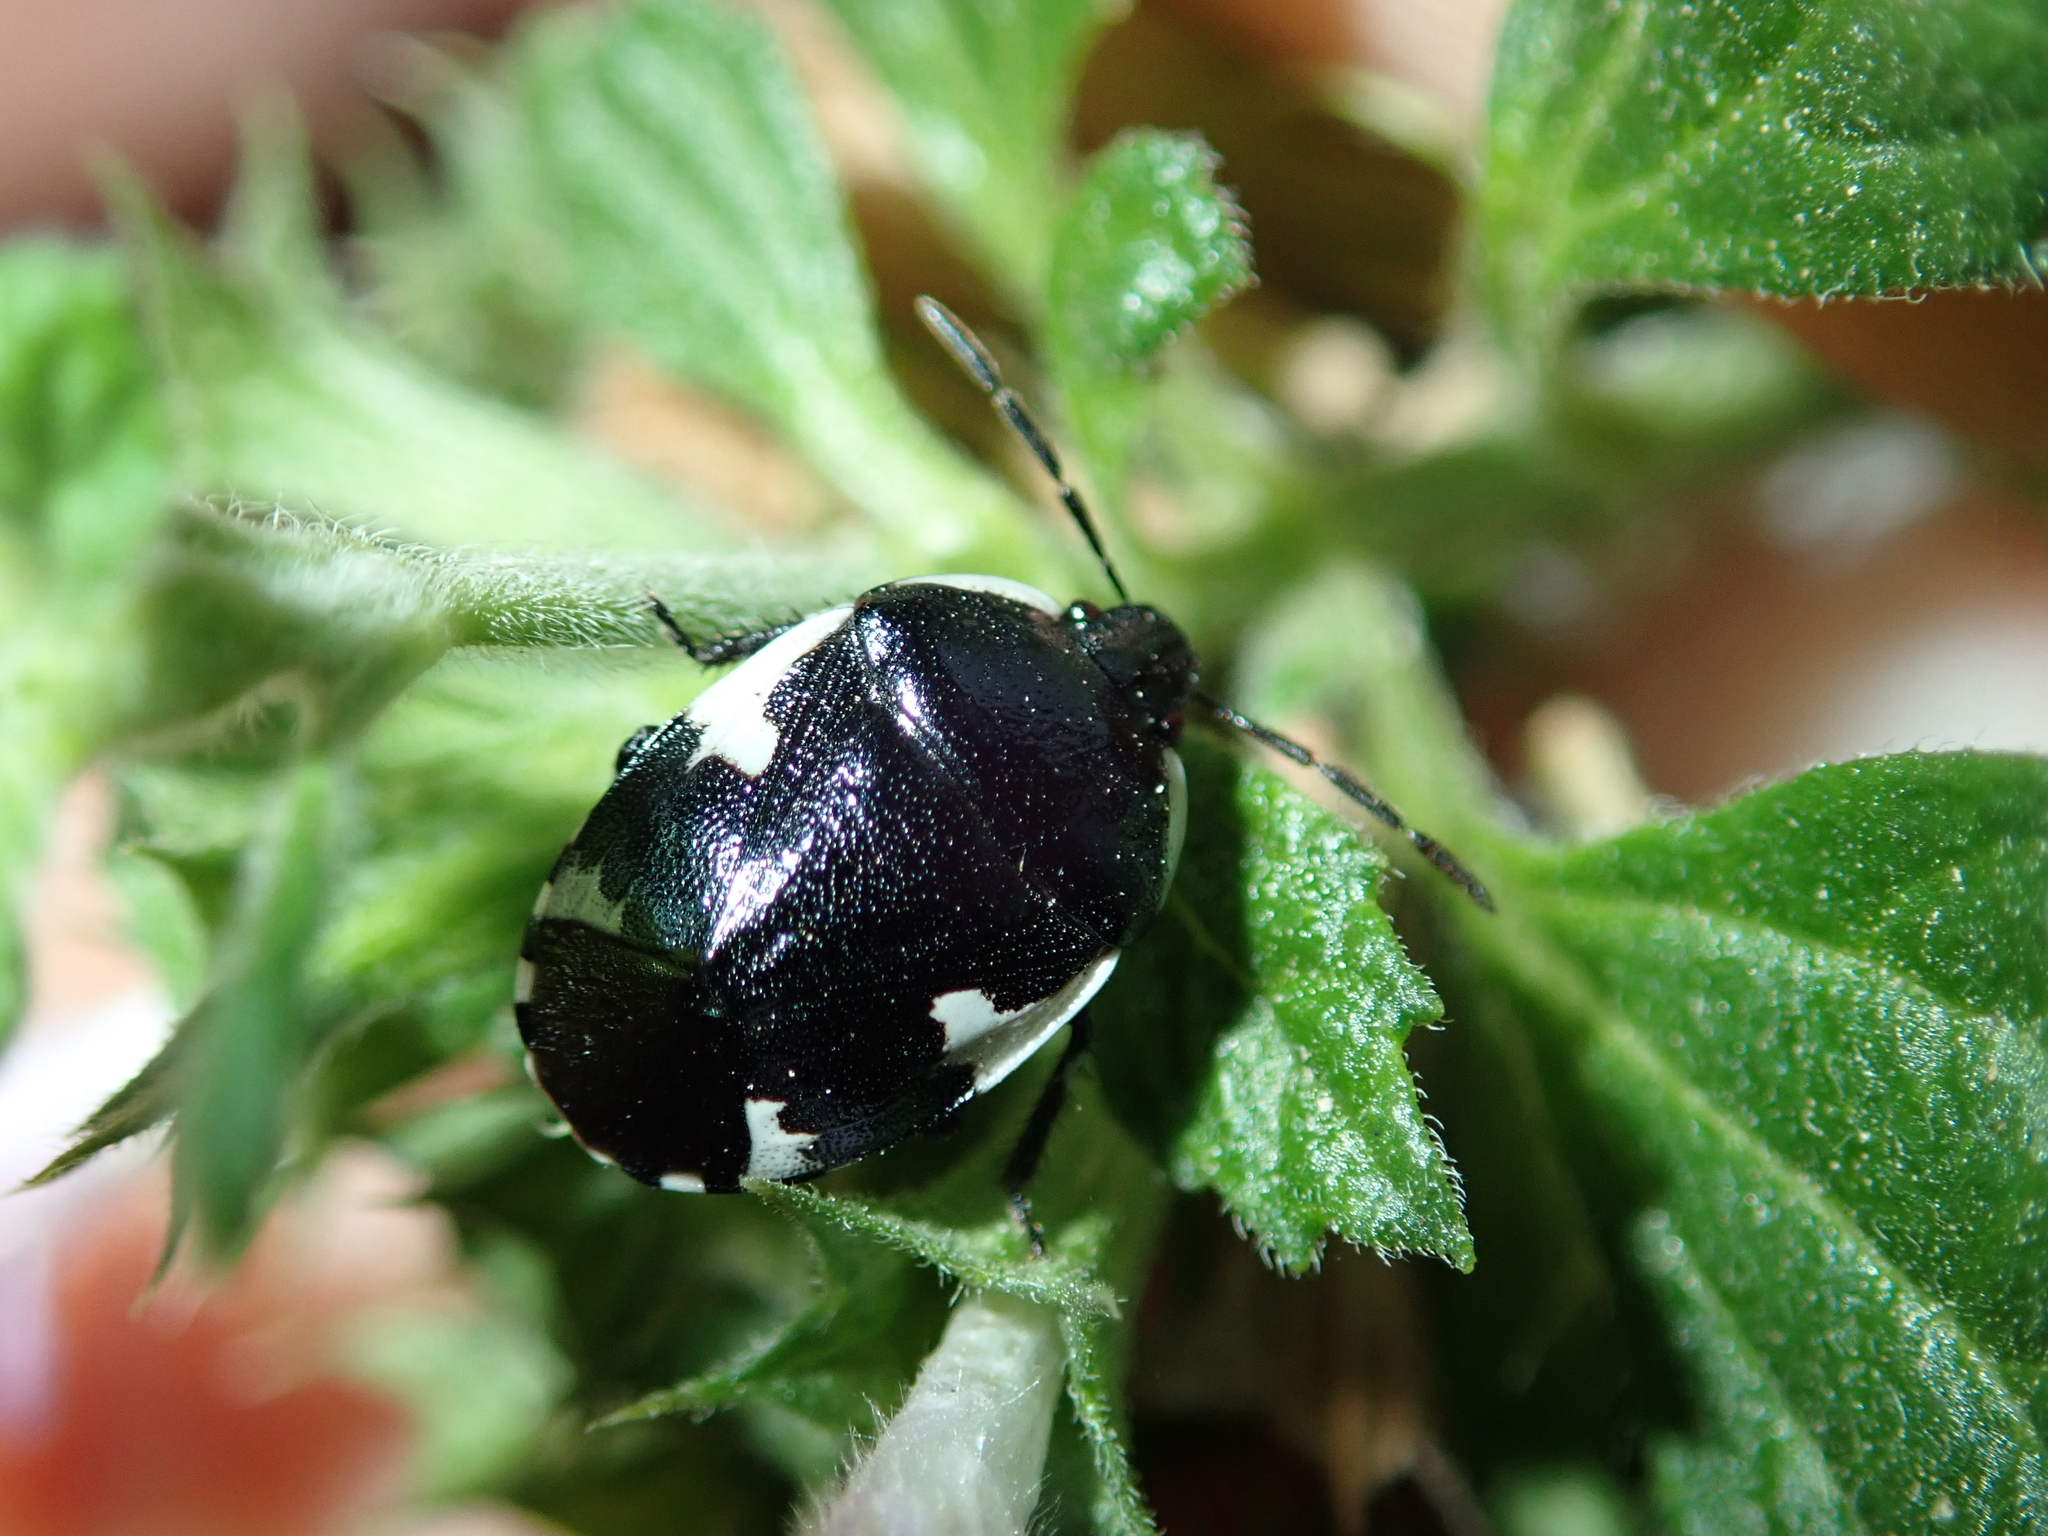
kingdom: Animalia
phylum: Arthropoda
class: Insecta
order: Hemiptera
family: Cydnidae
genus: Tritomegas
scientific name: Tritomegas sexmaculatus
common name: Rambur's pied shieldbug
